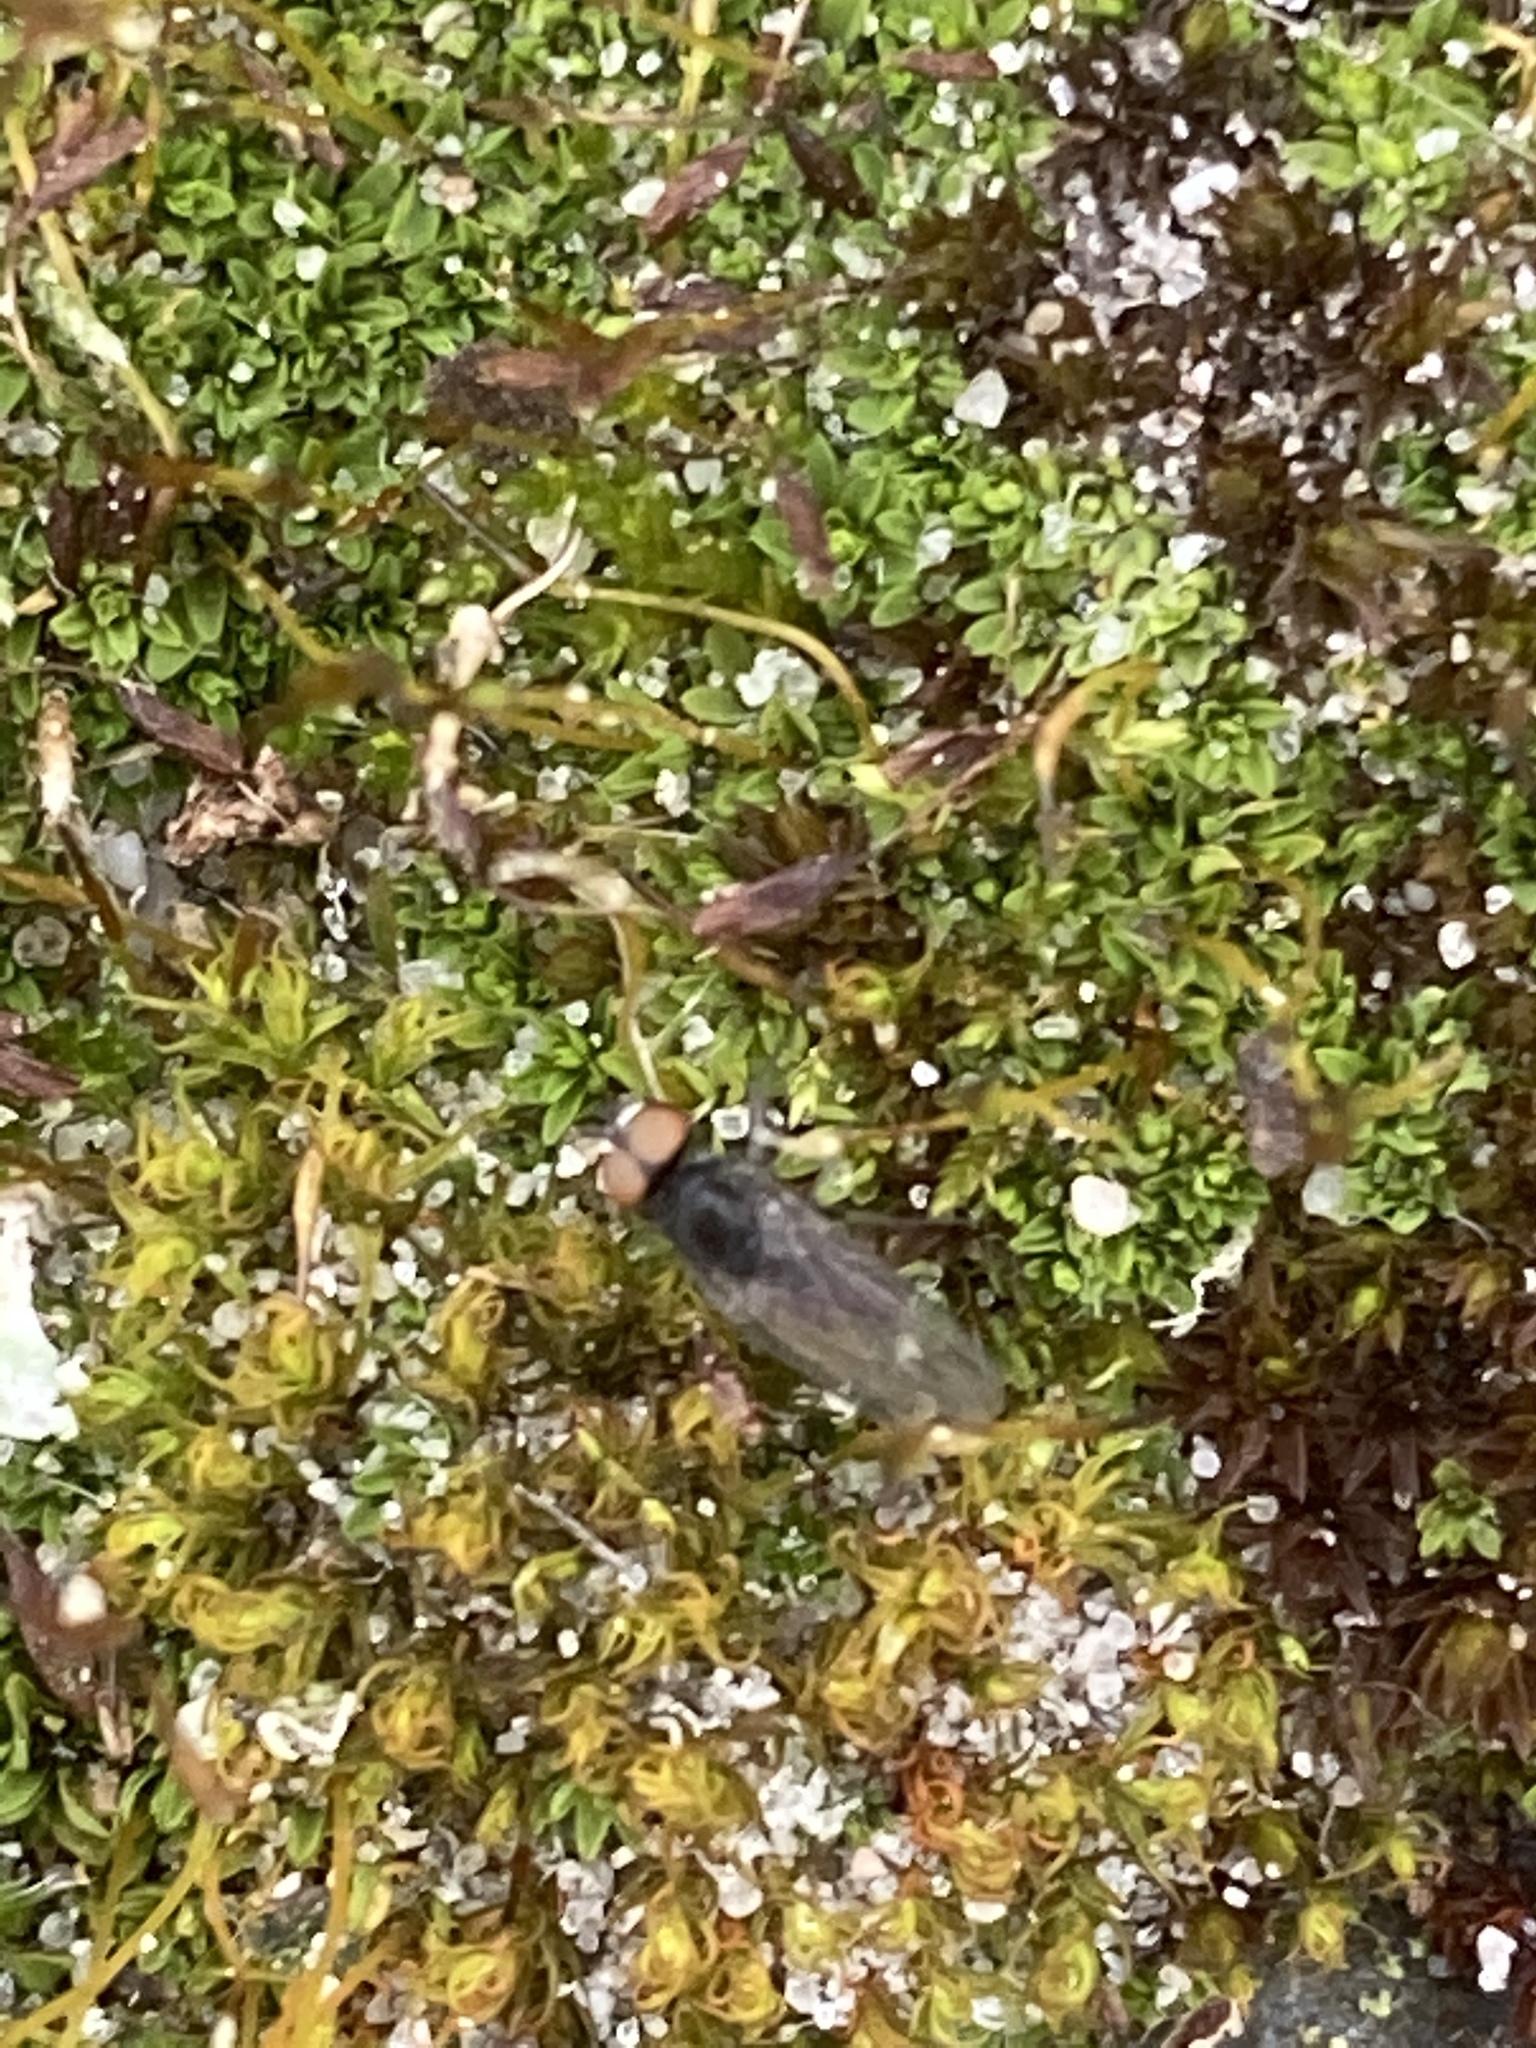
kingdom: Plantae
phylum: Bryophyta
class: Bryopsida
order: Pottiales
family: Pottiaceae
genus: Tortula
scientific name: Tortula muralis
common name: Wall screw-moss
